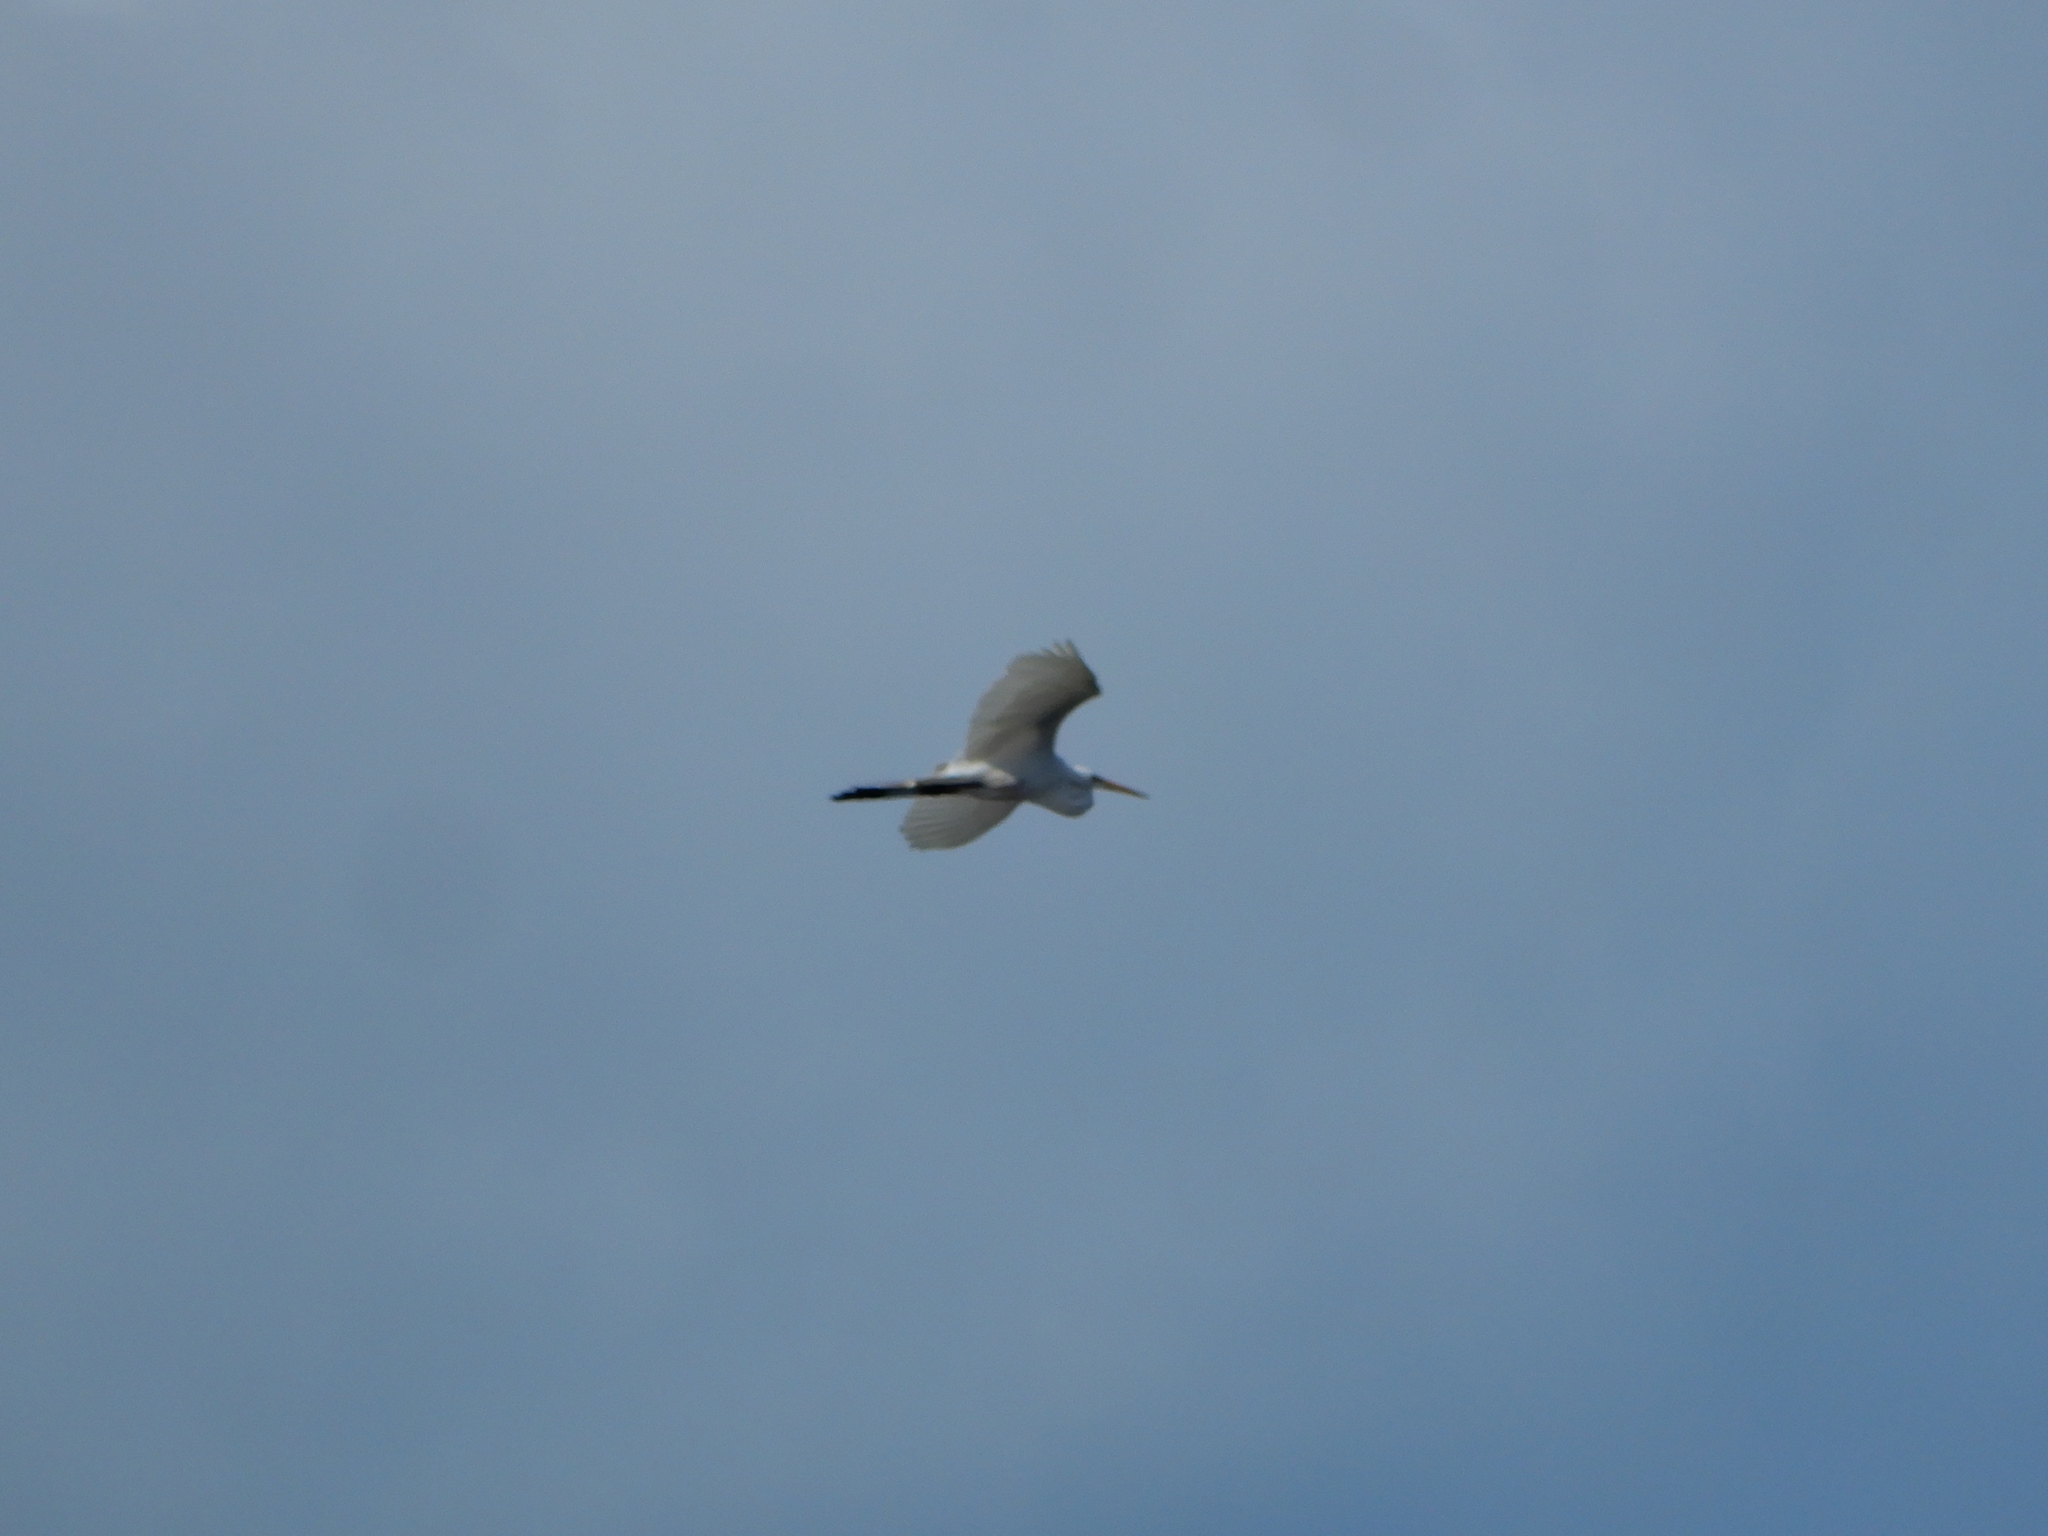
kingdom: Animalia
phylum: Chordata
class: Aves
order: Pelecaniformes
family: Ardeidae
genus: Ardea
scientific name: Ardea alba
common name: Great egret
